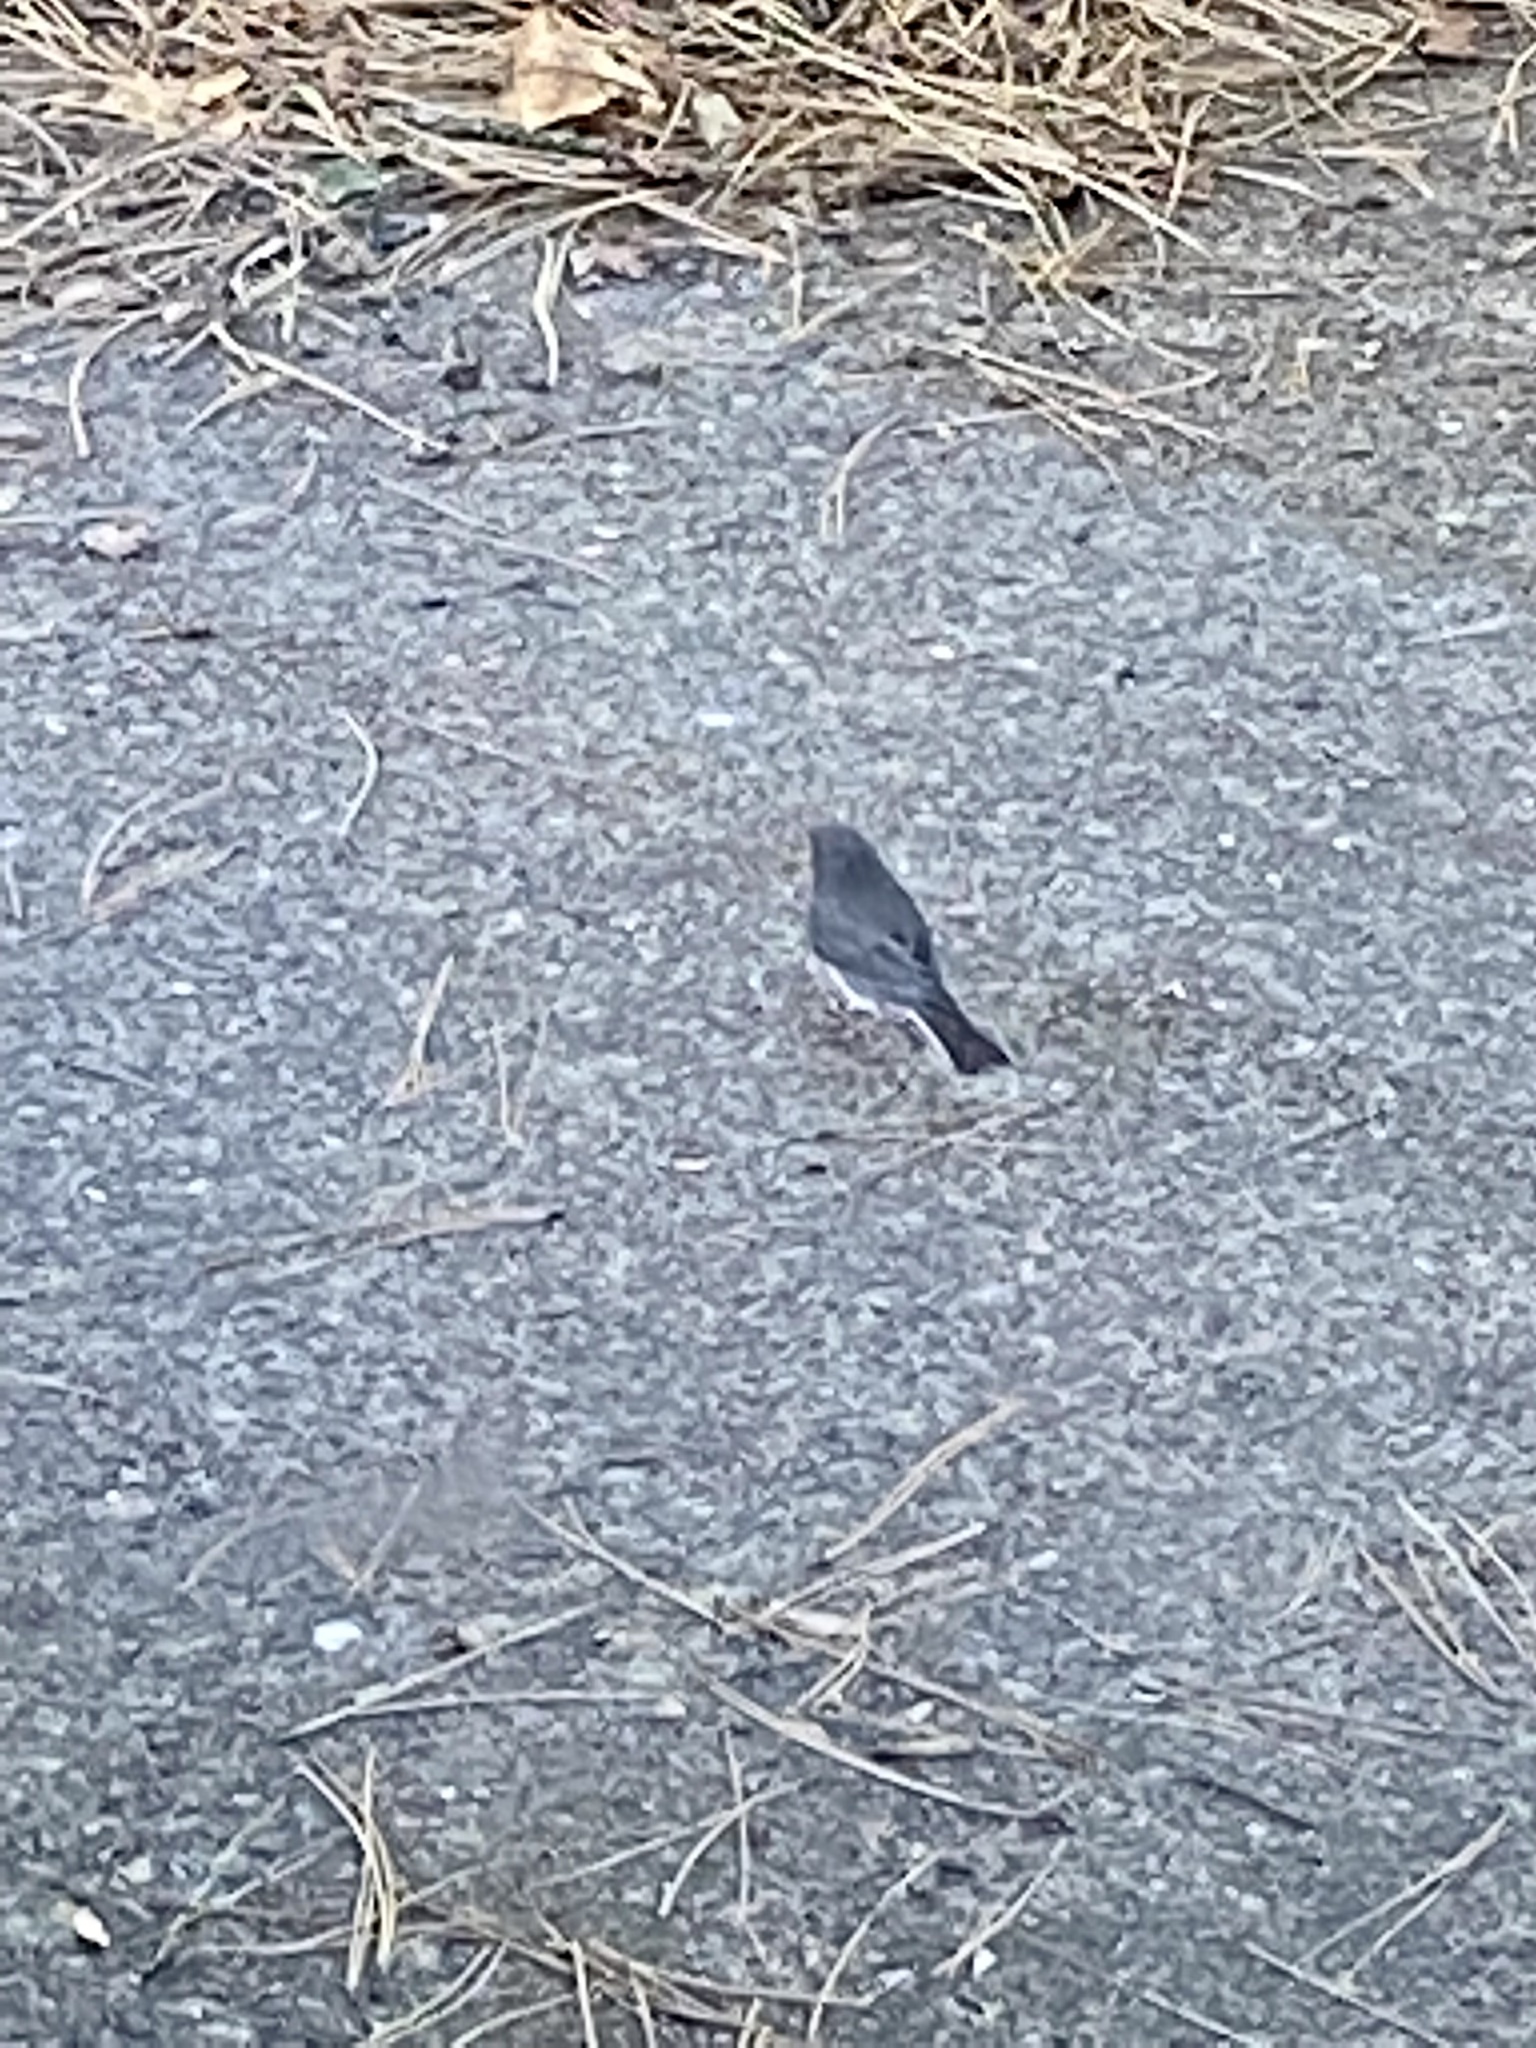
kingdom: Animalia
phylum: Chordata
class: Aves
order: Passeriformes
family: Passerellidae
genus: Junco
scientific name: Junco hyemalis
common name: Dark-eyed junco
